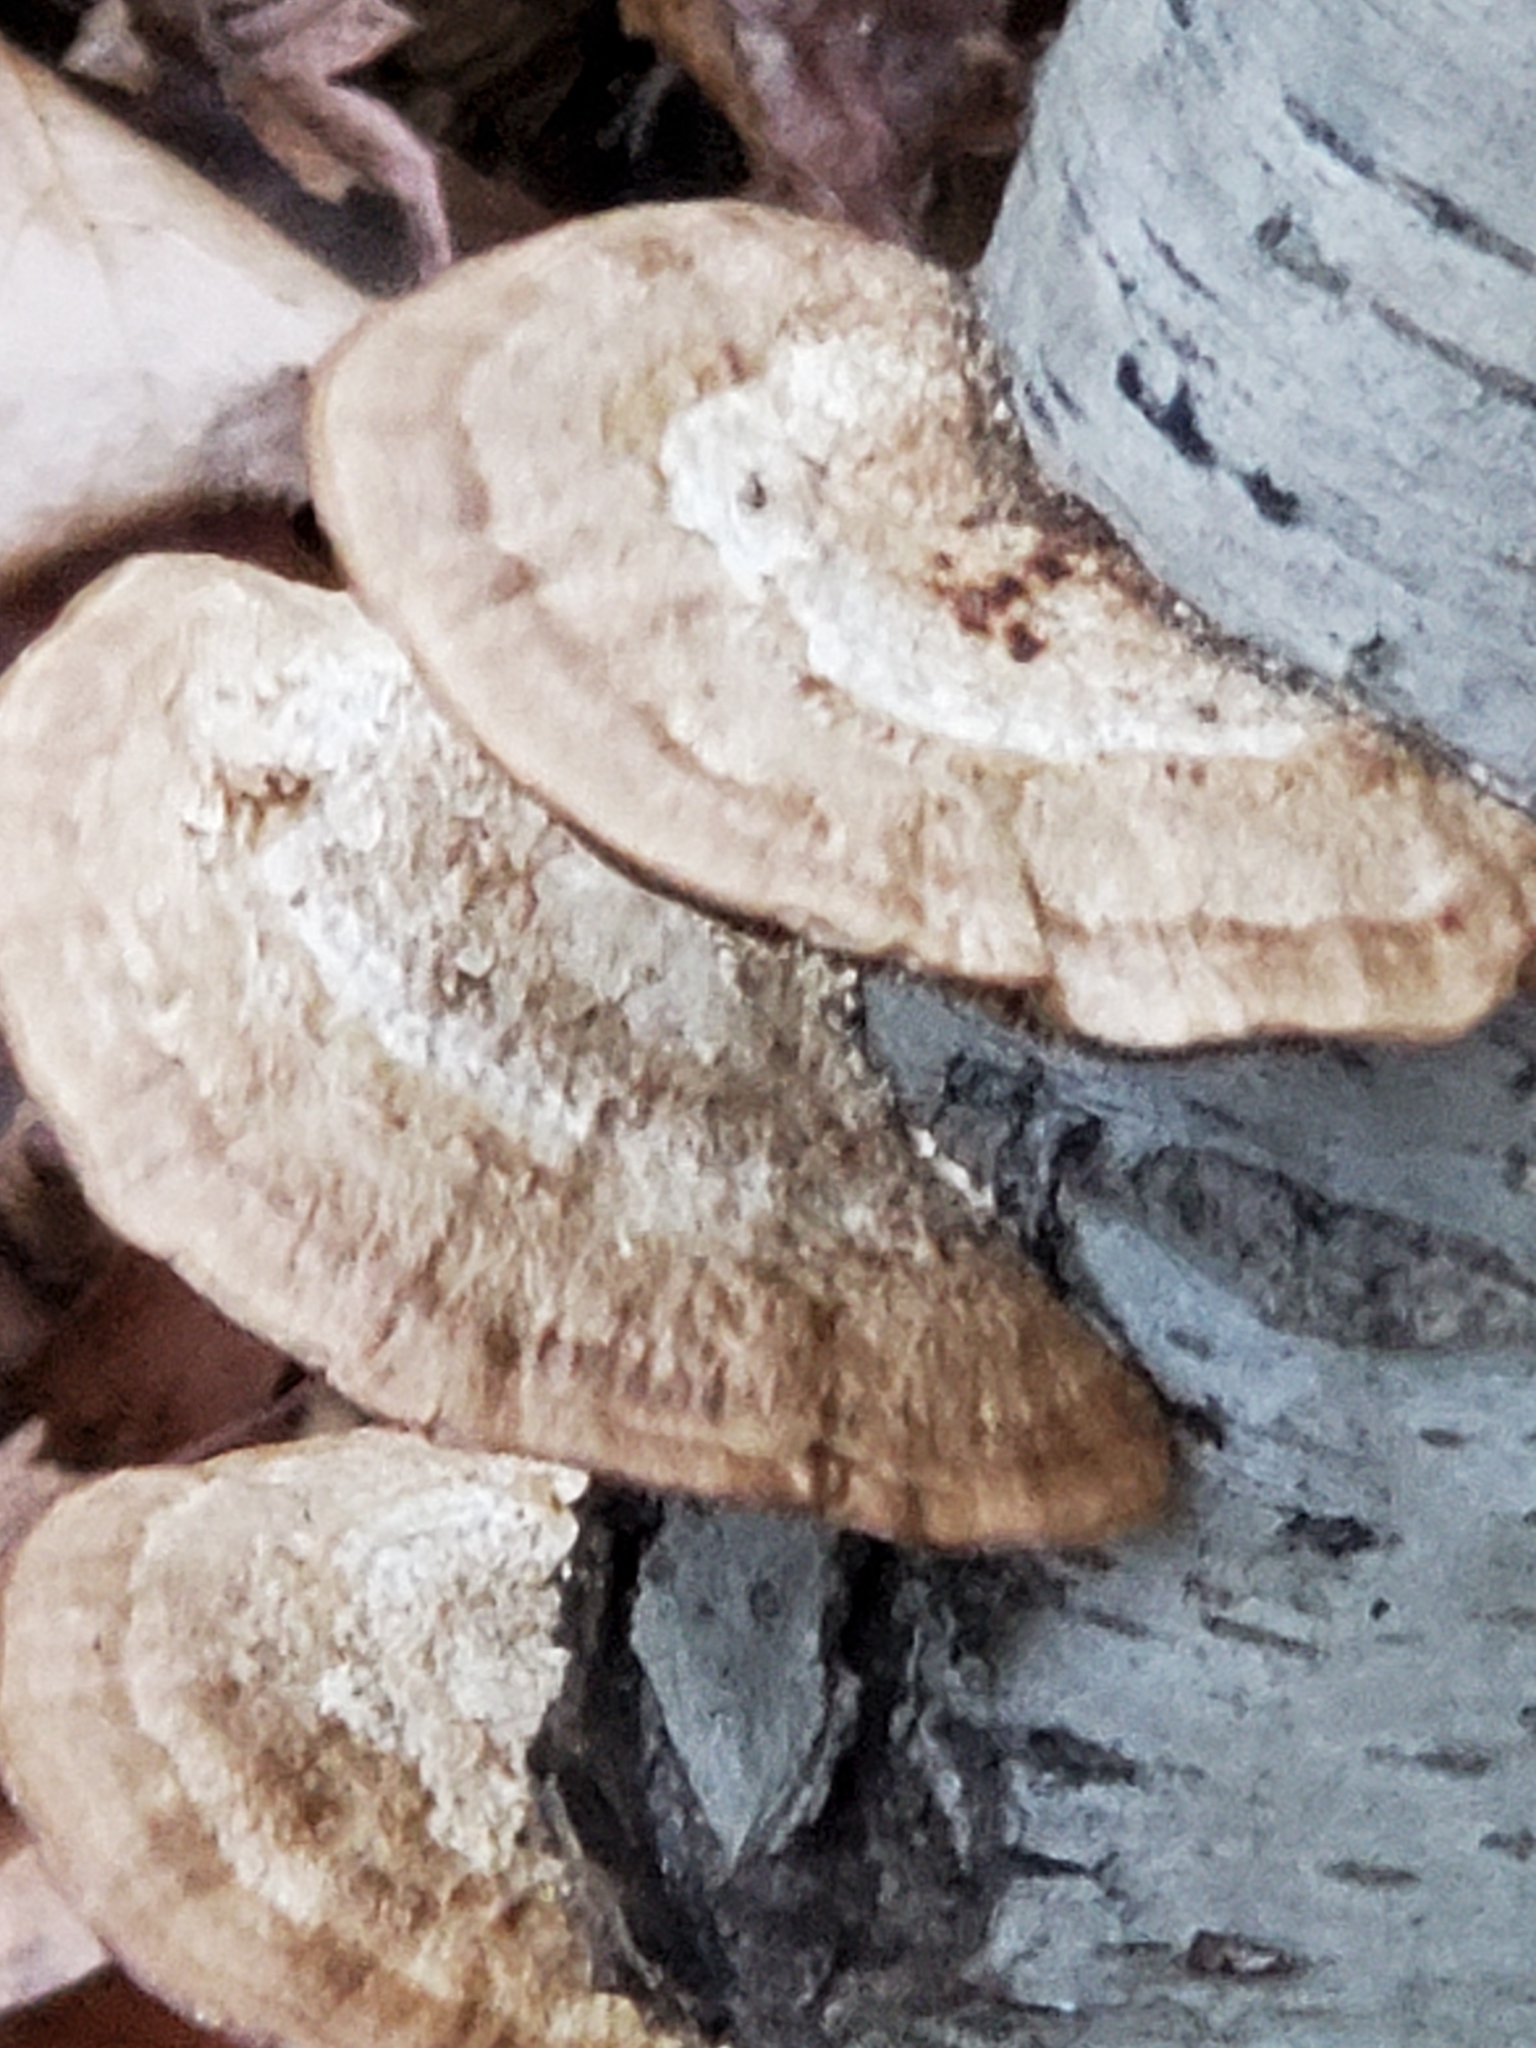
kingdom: Fungi
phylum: Basidiomycota
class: Agaricomycetes
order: Polyporales
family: Polyporaceae
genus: Daedaleopsis
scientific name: Daedaleopsis confragosa
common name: Blushing bracket
